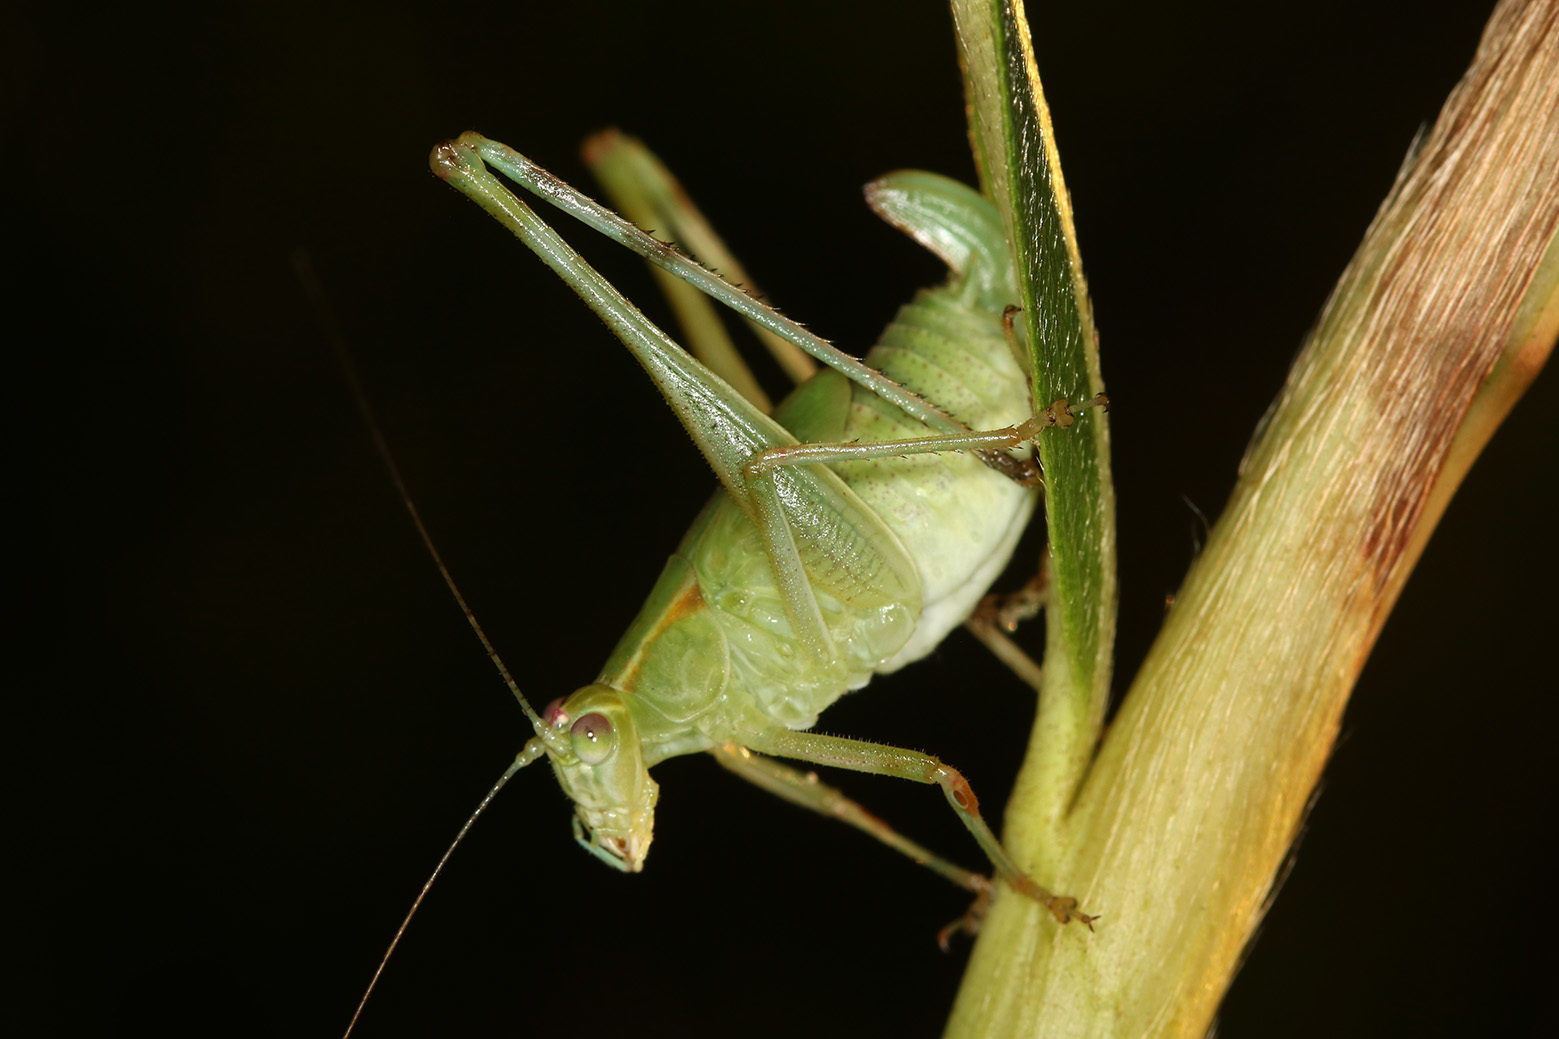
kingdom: Animalia
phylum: Arthropoda
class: Insecta
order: Orthoptera
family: Tettigoniidae
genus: Ligocatinus
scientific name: Ligocatinus spinatus
